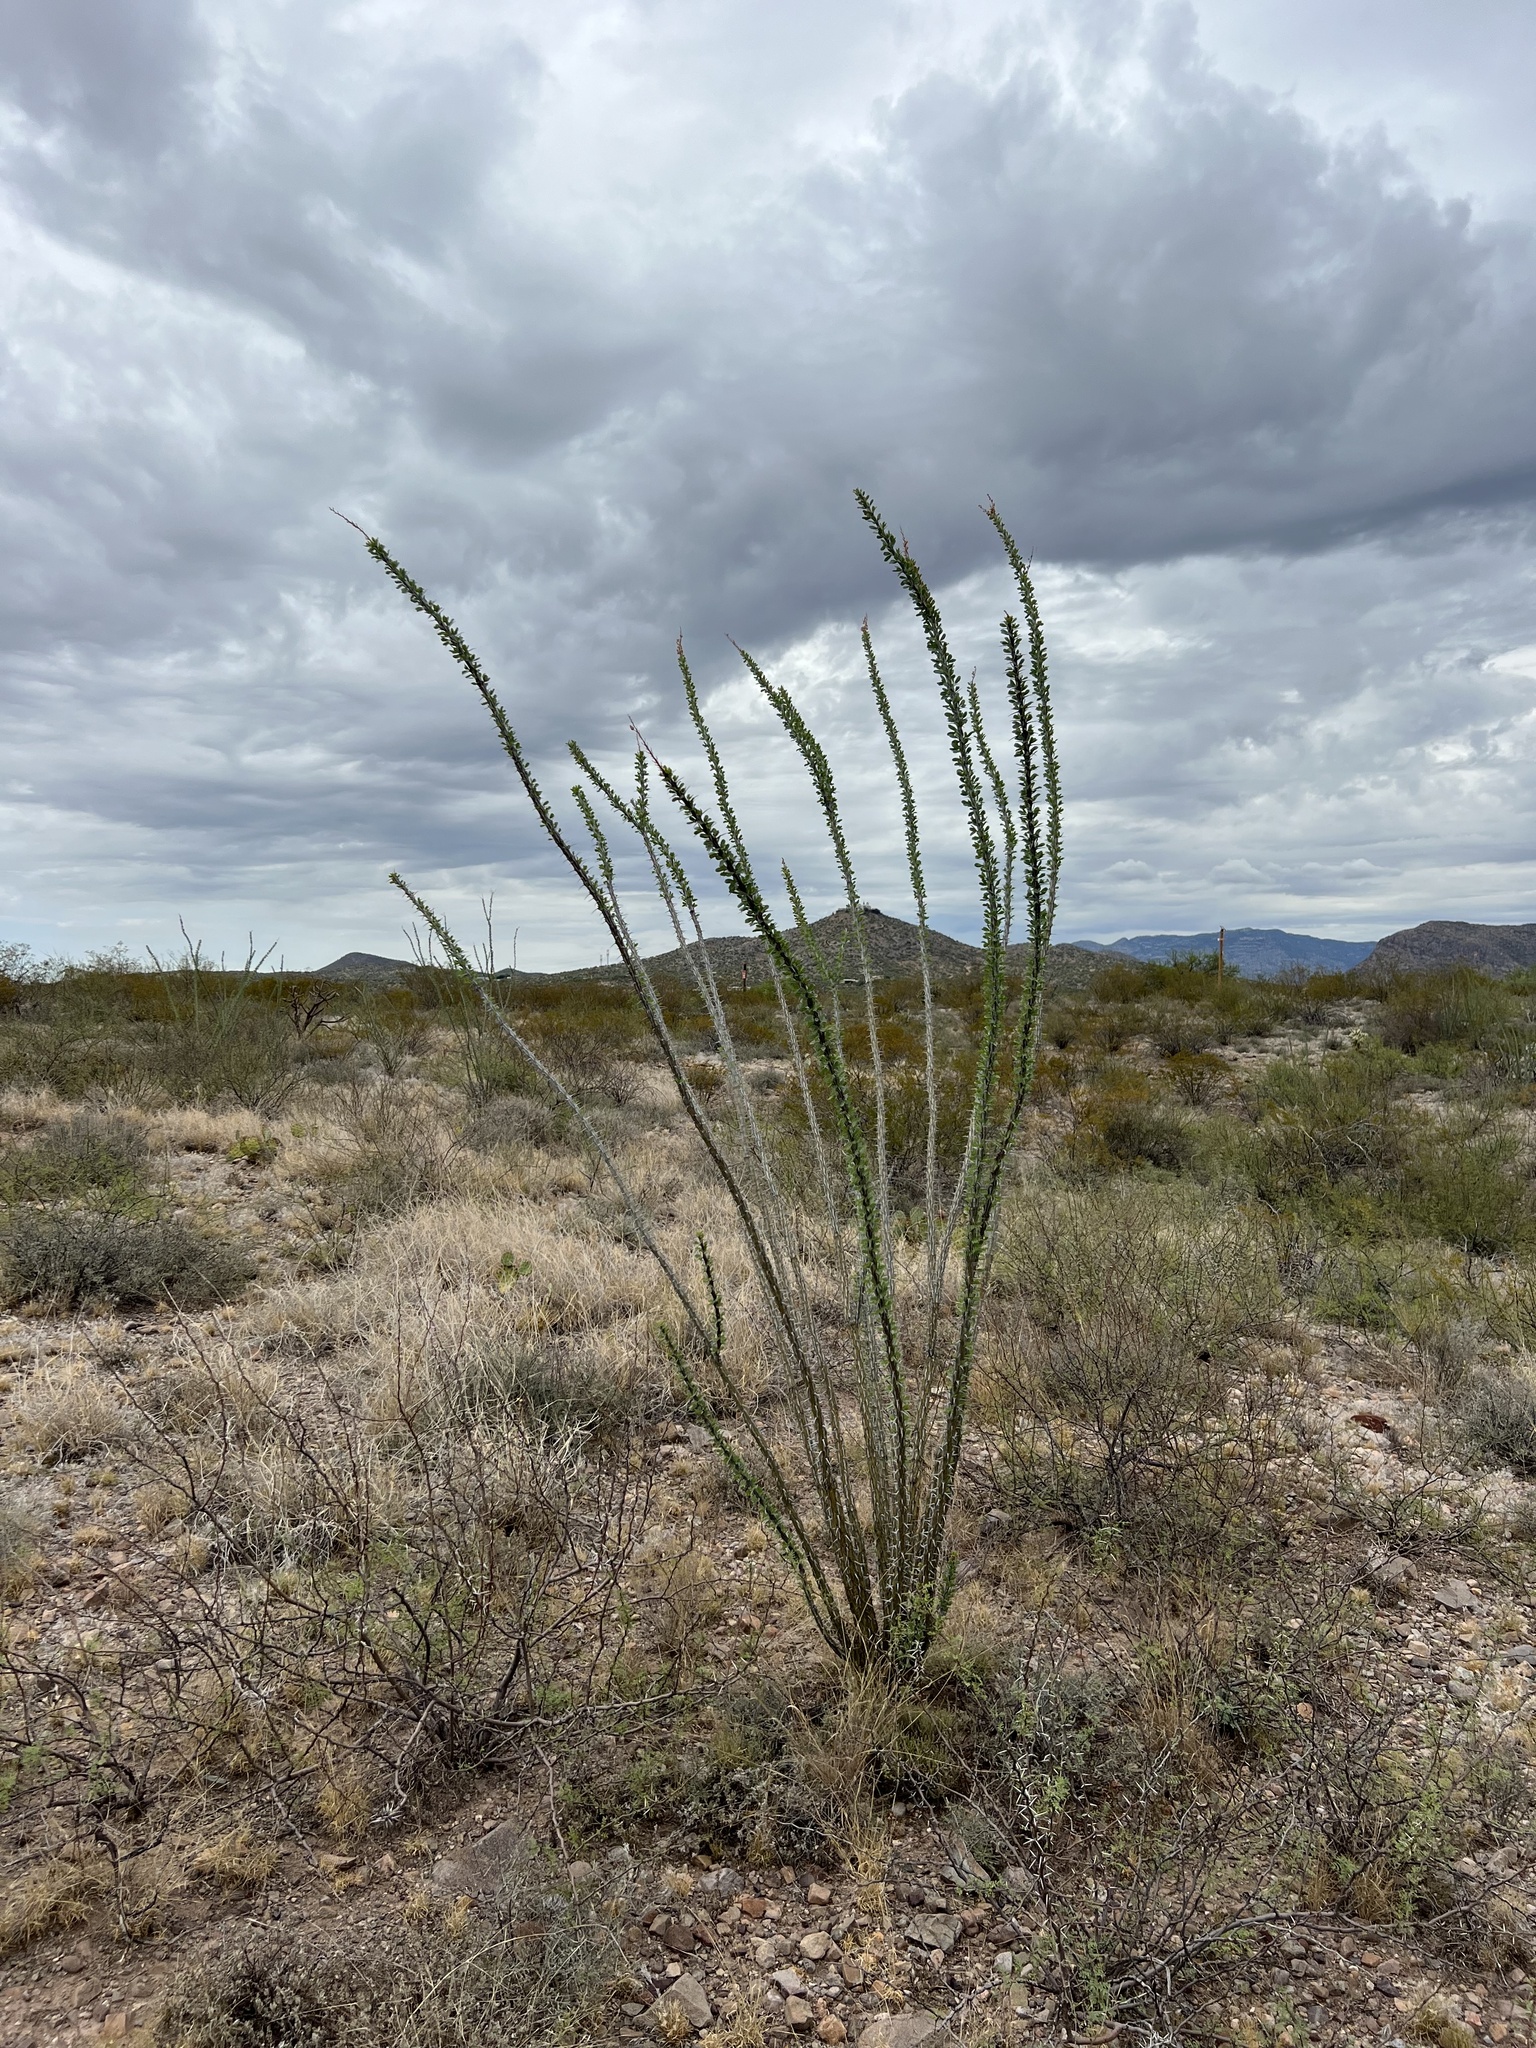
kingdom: Plantae
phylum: Tracheophyta
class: Magnoliopsida
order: Ericales
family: Fouquieriaceae
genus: Fouquieria
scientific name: Fouquieria splendens
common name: Vine-cactus
